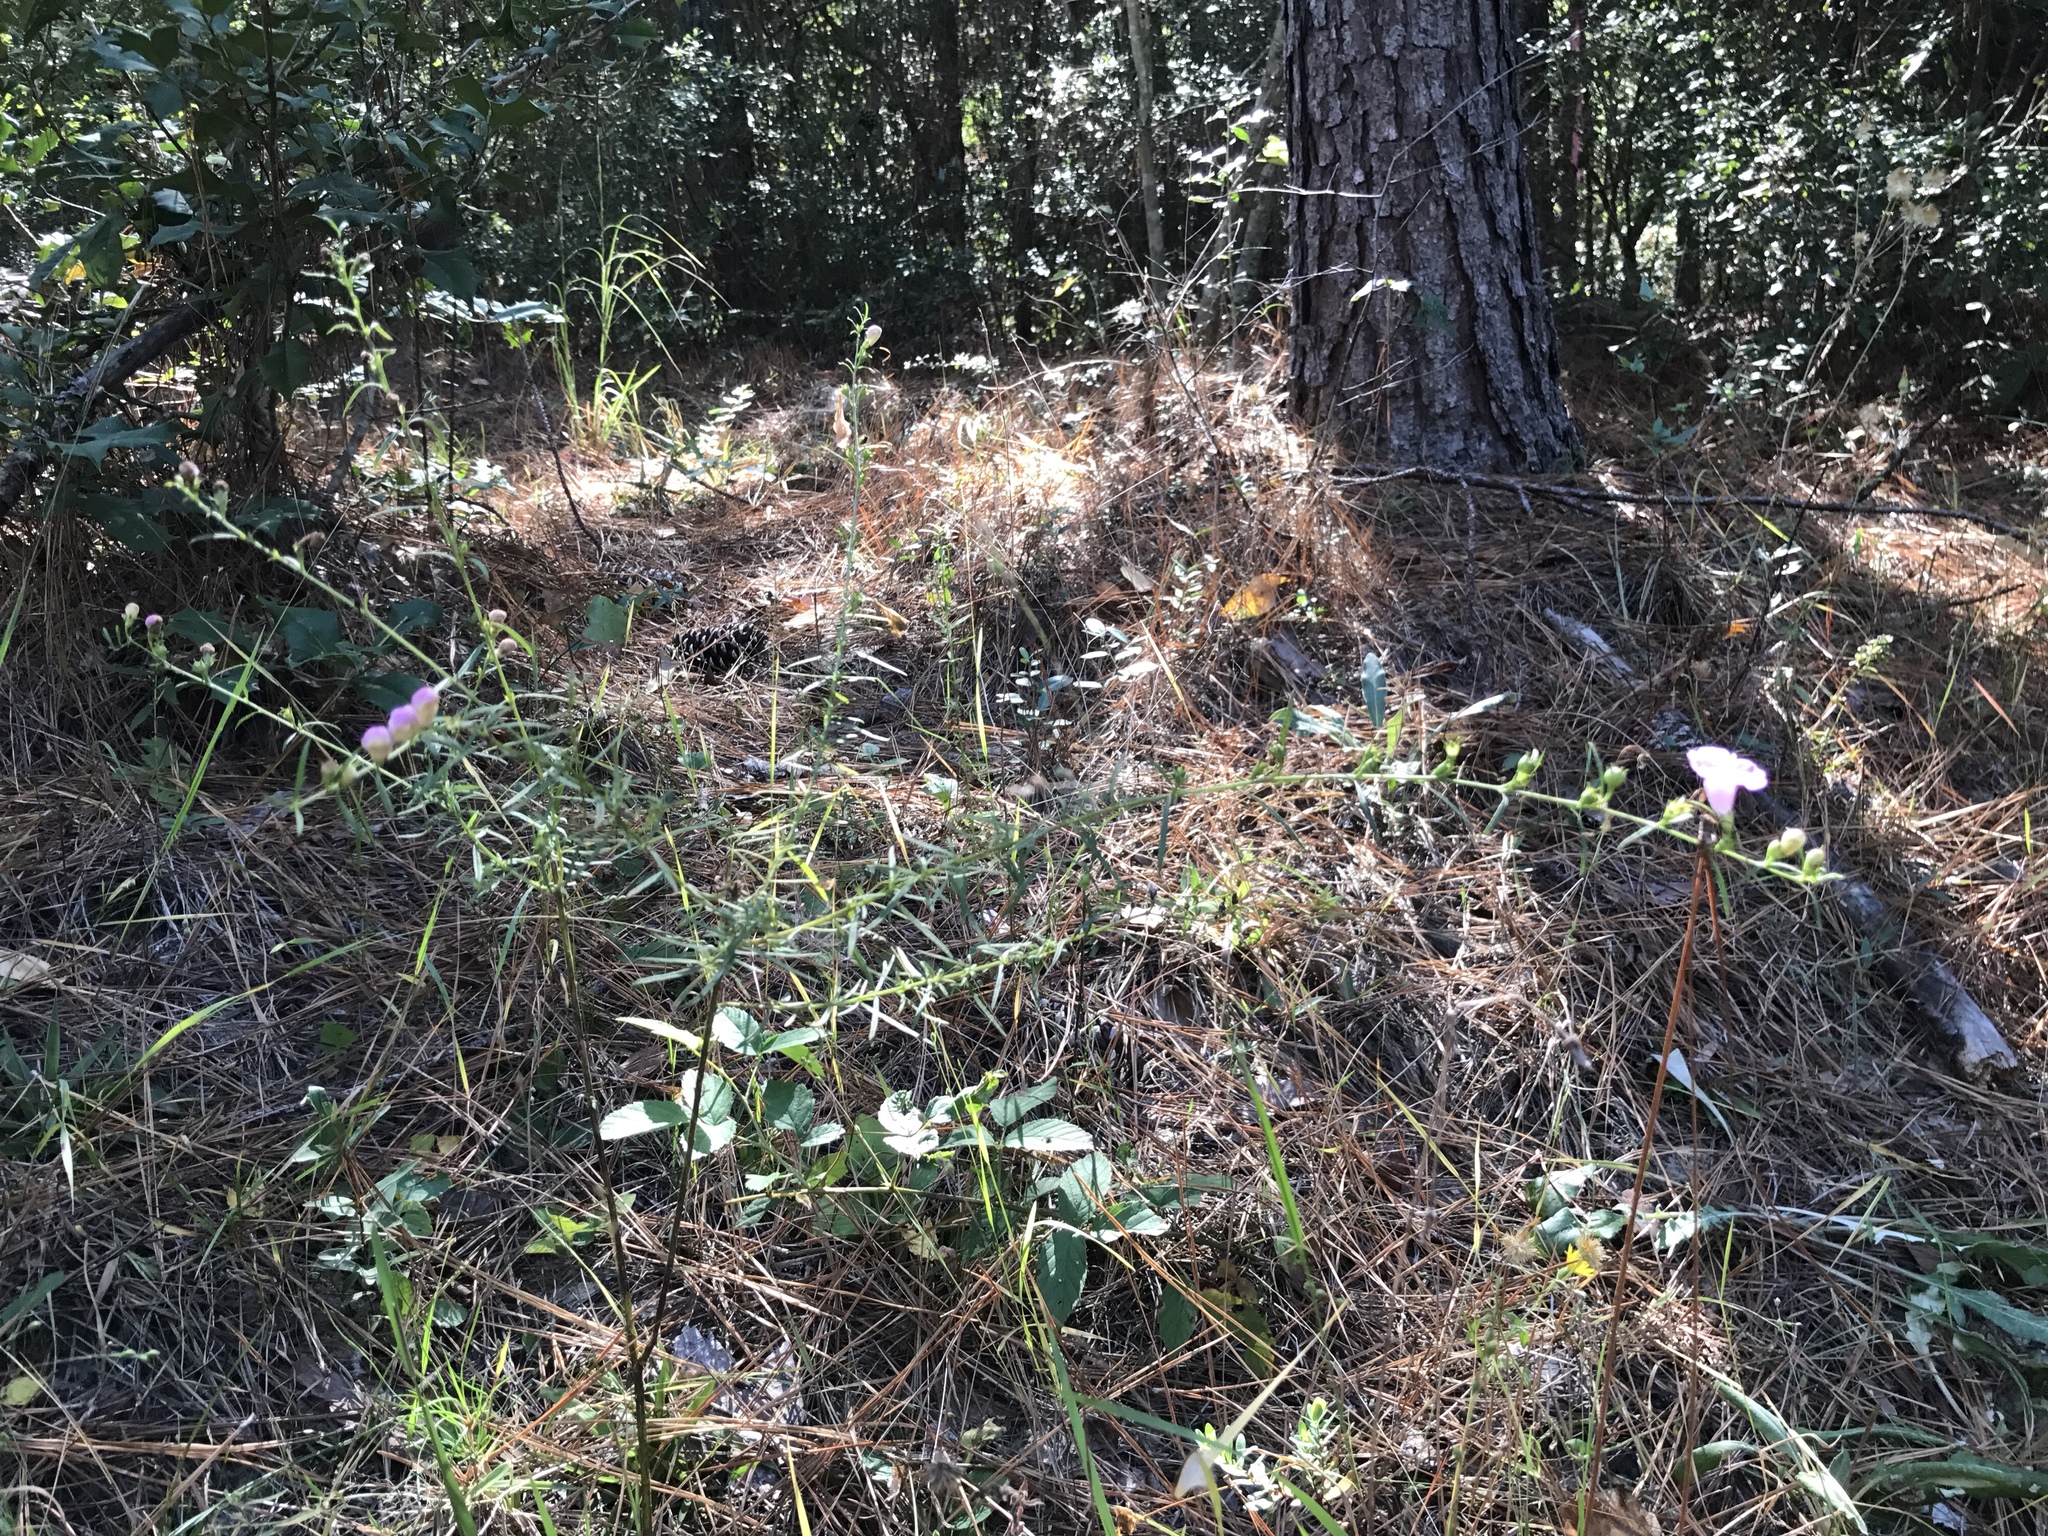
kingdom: Plantae
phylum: Tracheophyta
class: Magnoliopsida
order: Lamiales
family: Orobanchaceae
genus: Agalinis
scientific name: Agalinis fasciculata
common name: Beach false foxglove
